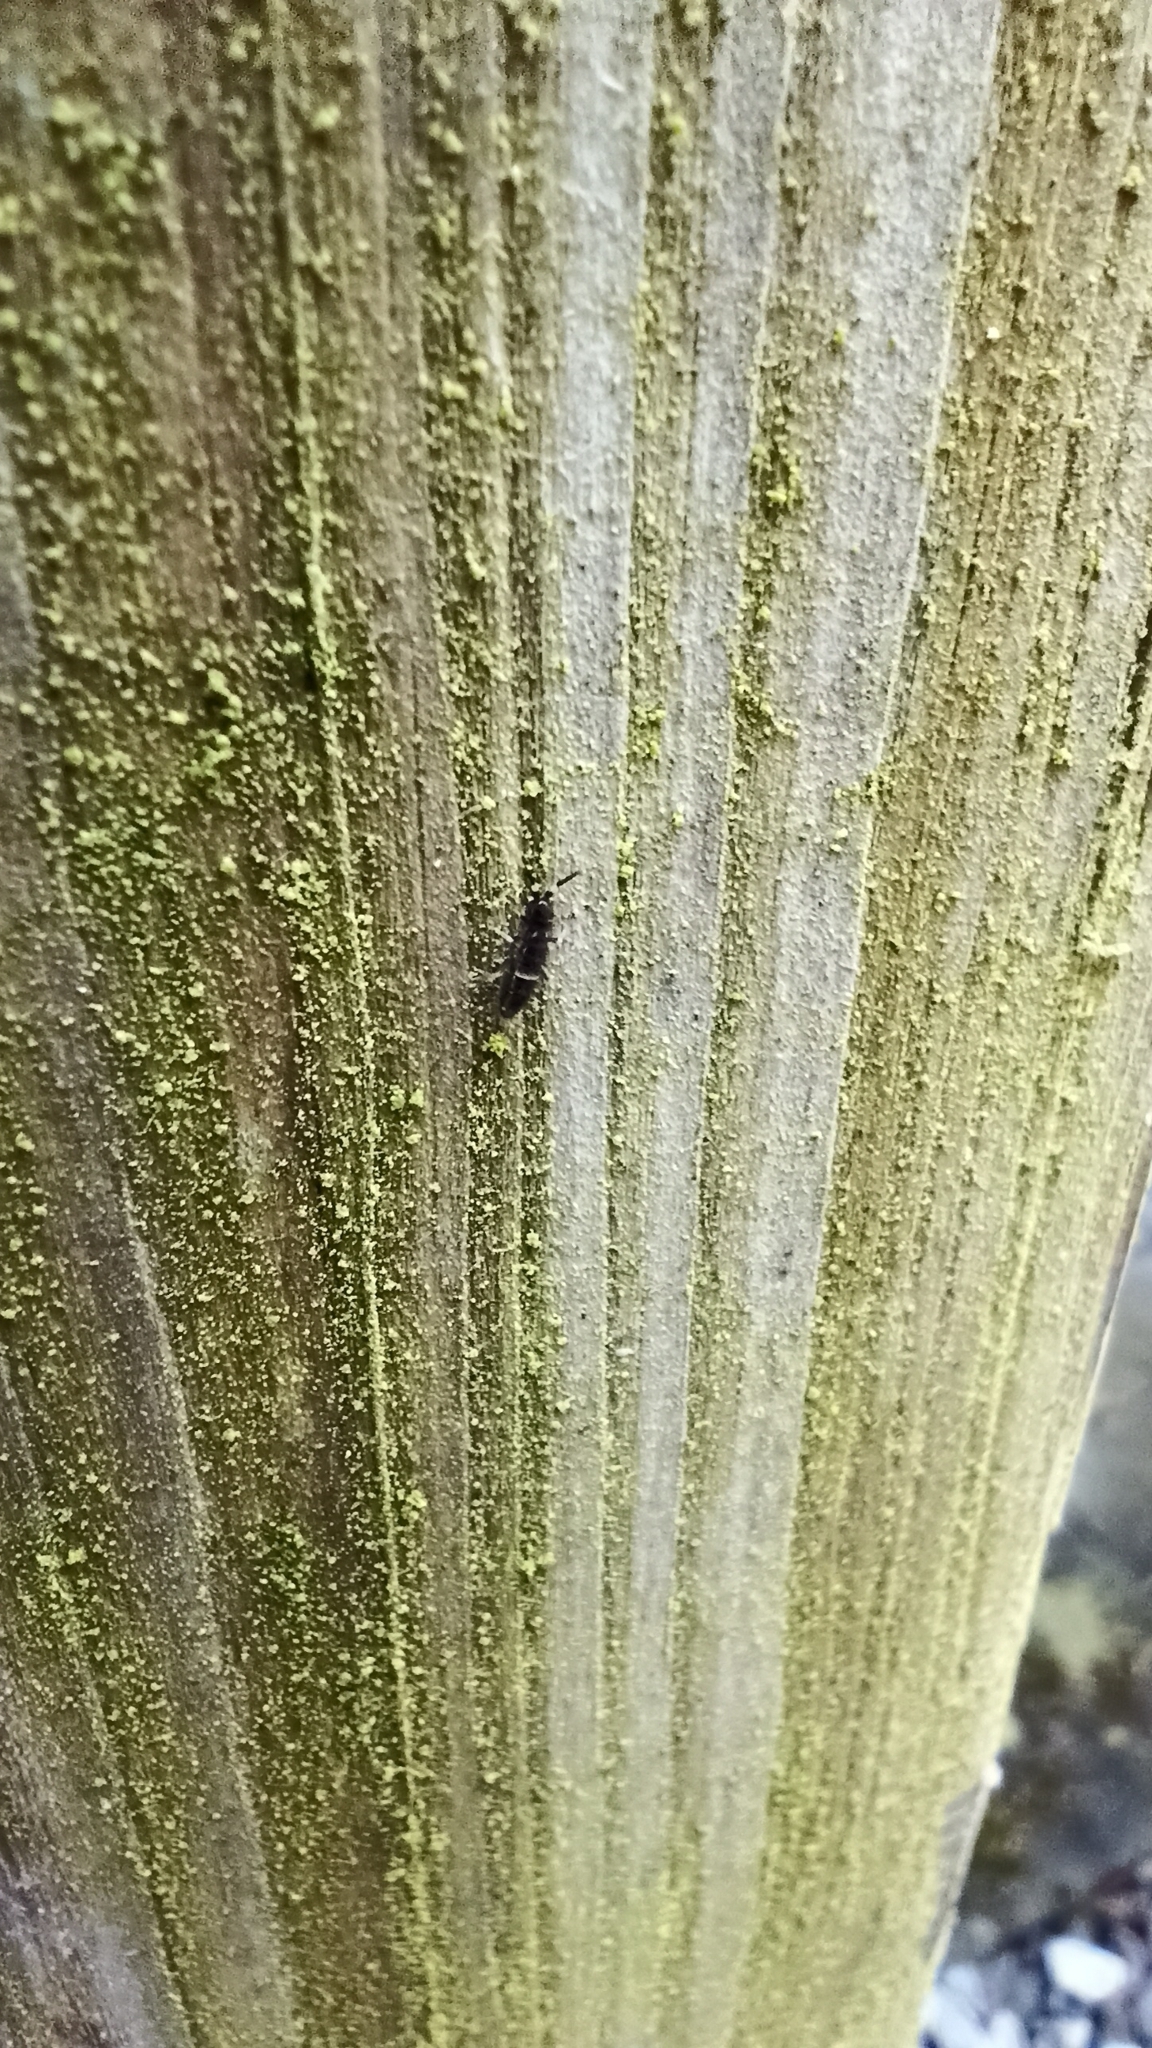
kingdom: Animalia
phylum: Arthropoda
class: Collembola
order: Entomobryomorpha
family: Orchesellidae
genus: Orchesella
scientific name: Orchesella cincta
